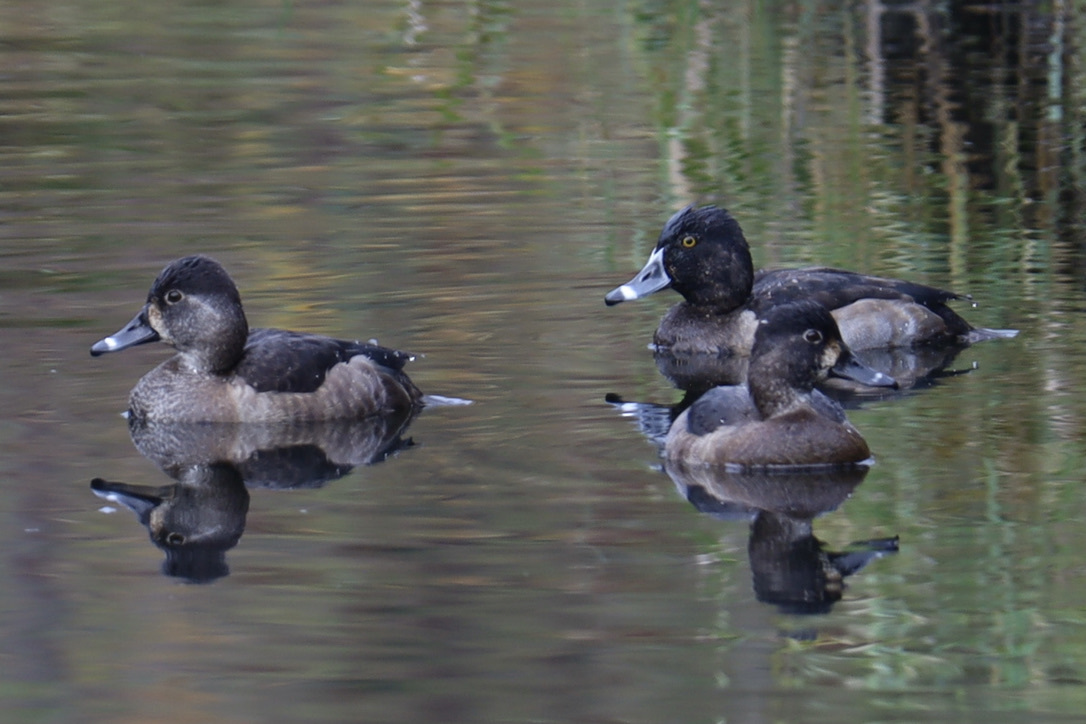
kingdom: Animalia
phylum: Chordata
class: Aves
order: Anseriformes
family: Anatidae
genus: Aythya
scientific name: Aythya collaris
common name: Ring-necked duck
